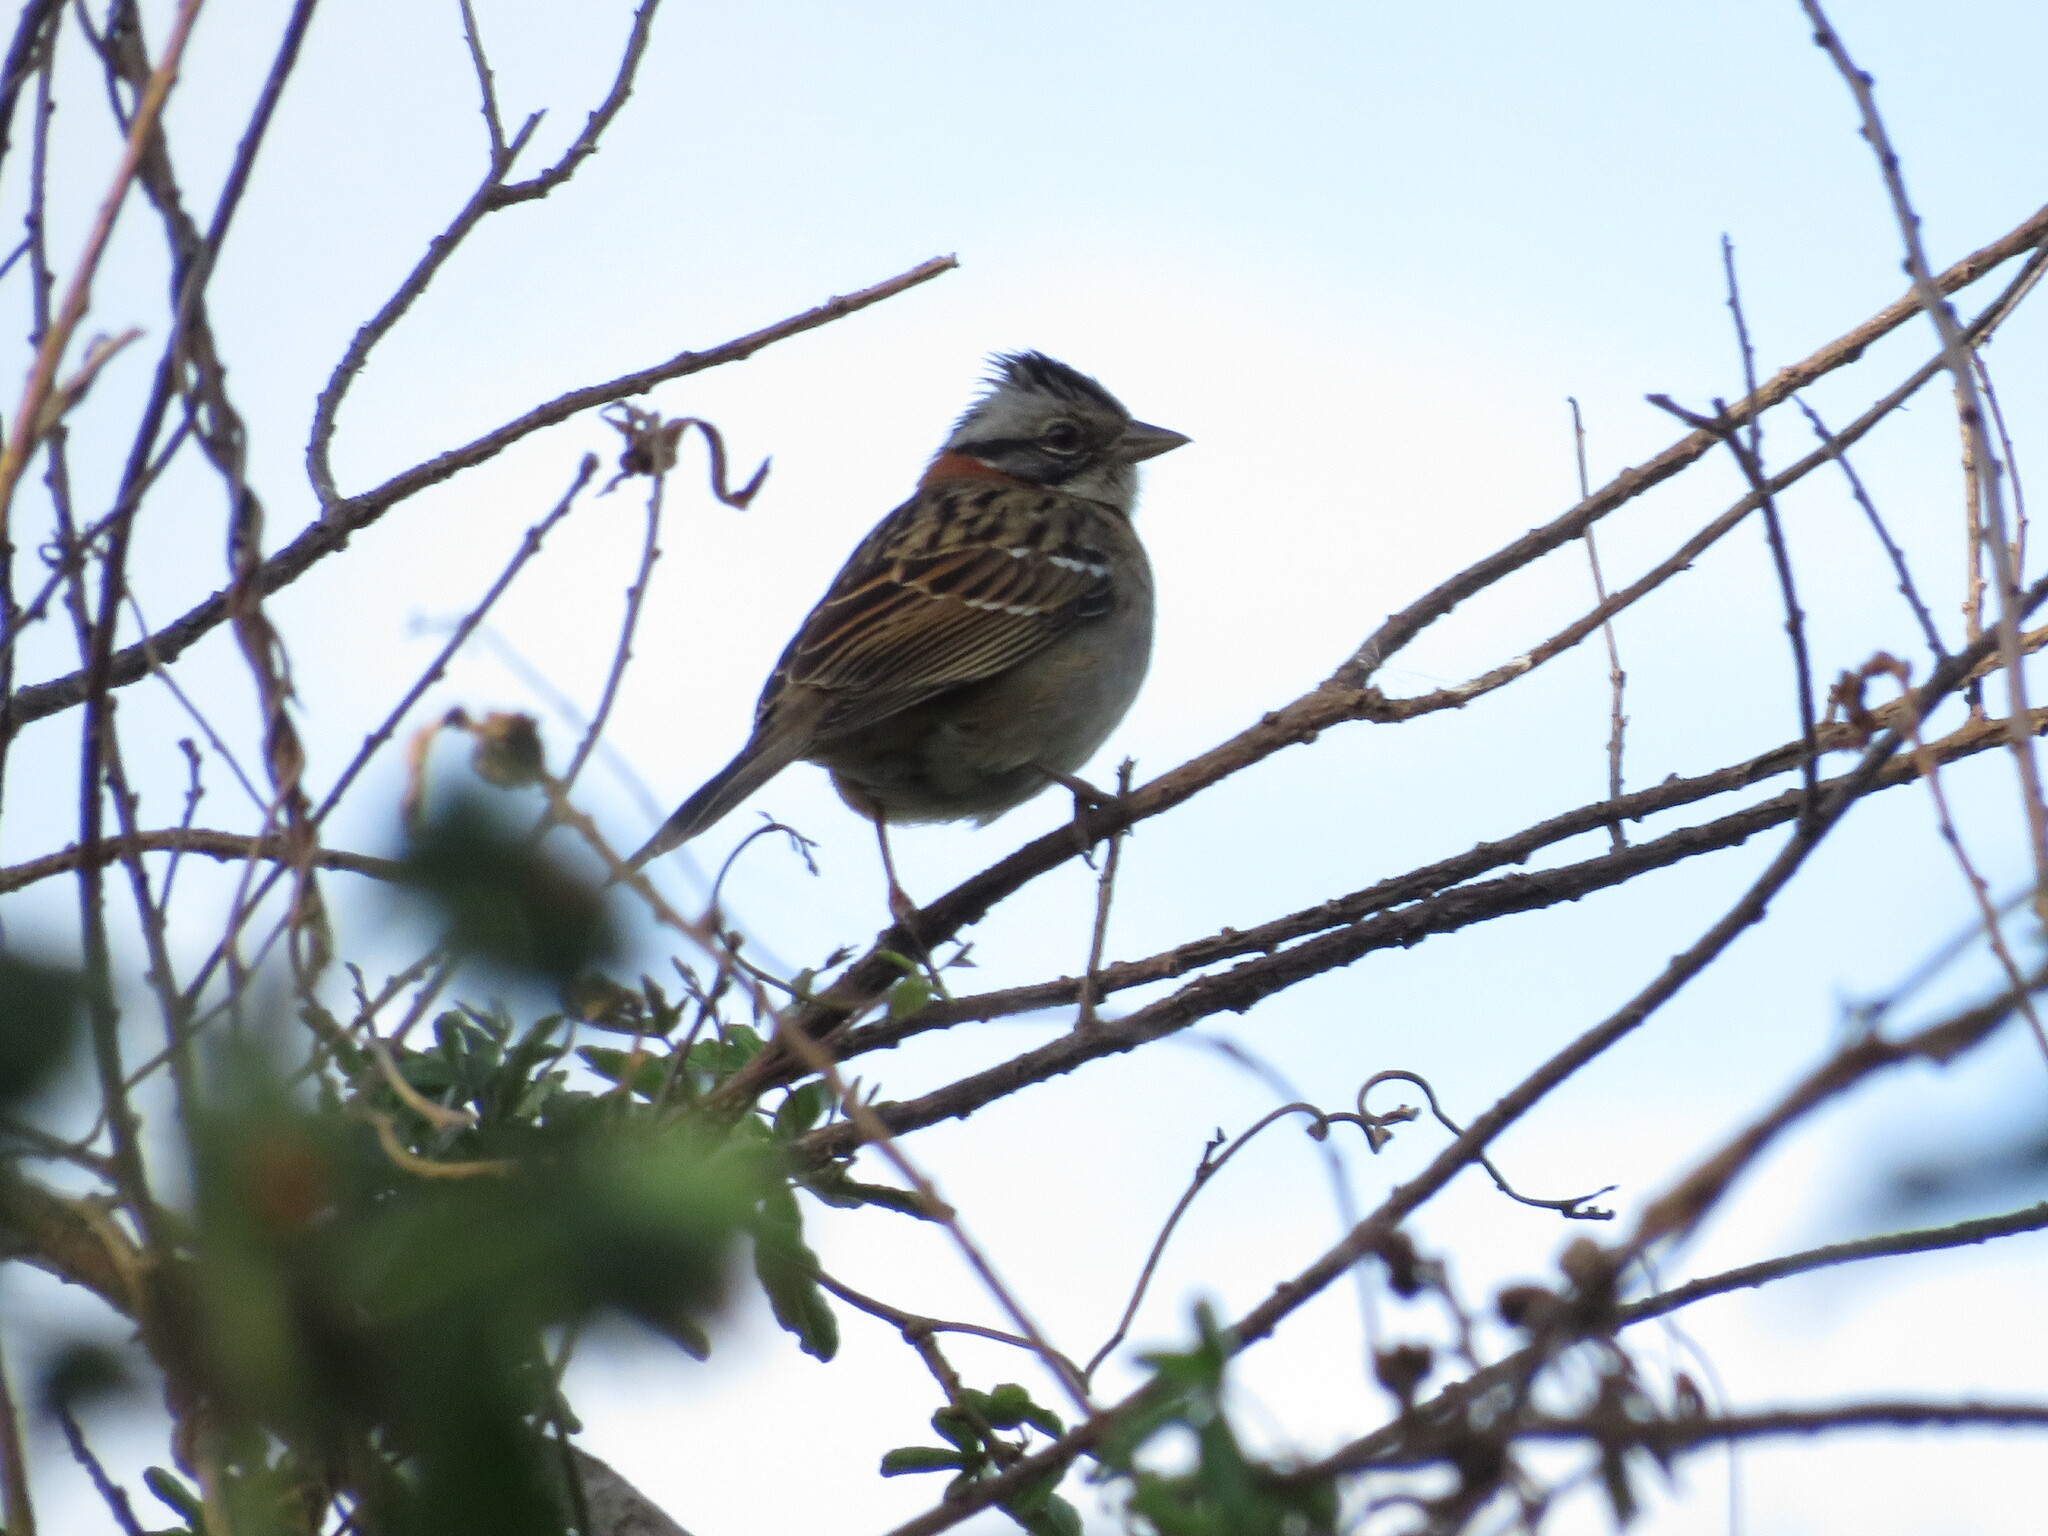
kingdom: Animalia
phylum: Chordata
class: Aves
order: Passeriformes
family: Passerellidae
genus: Zonotrichia
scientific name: Zonotrichia capensis
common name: Rufous-collared sparrow
